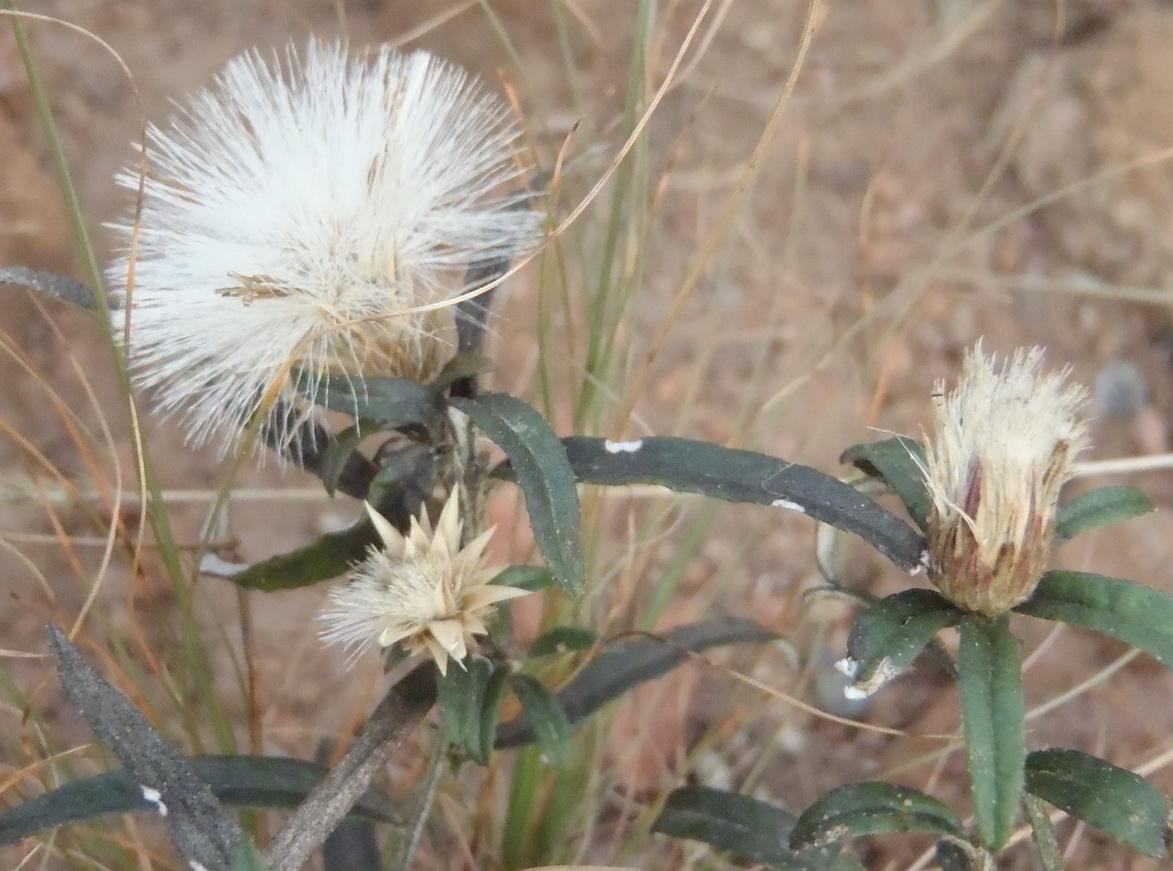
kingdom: Plantae
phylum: Tracheophyta
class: Magnoliopsida
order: Asterales
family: Asteraceae
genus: Dicoma
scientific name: Dicoma anomala
